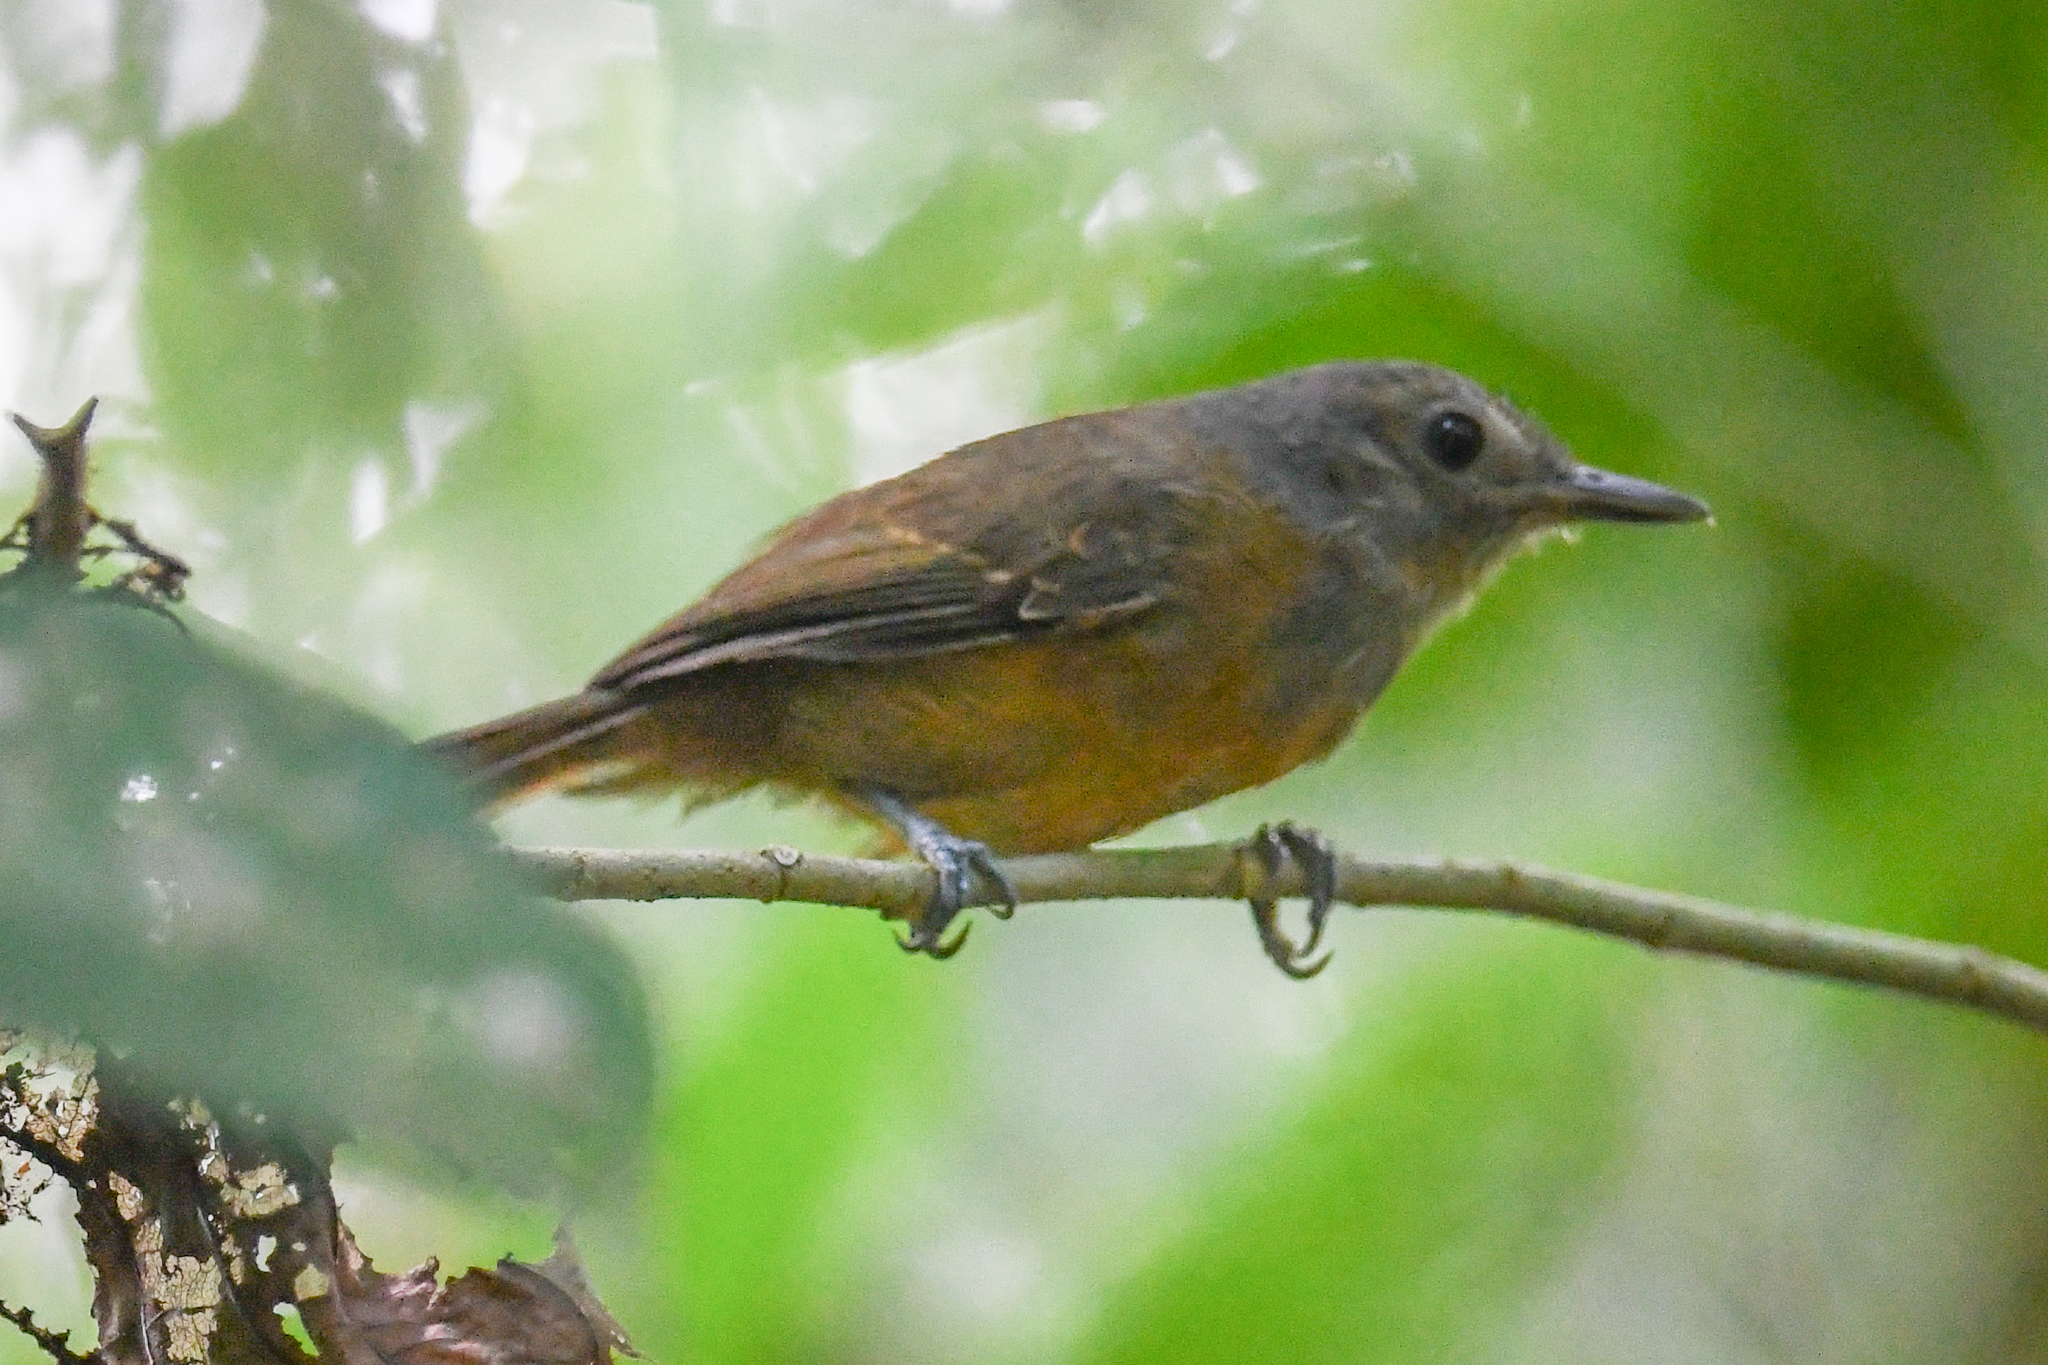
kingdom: Animalia
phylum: Chordata
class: Aves
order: Passeriformes
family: Thamnophilidae
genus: Cercomacra
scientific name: Cercomacra tyrannina
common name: Dusky antbird
